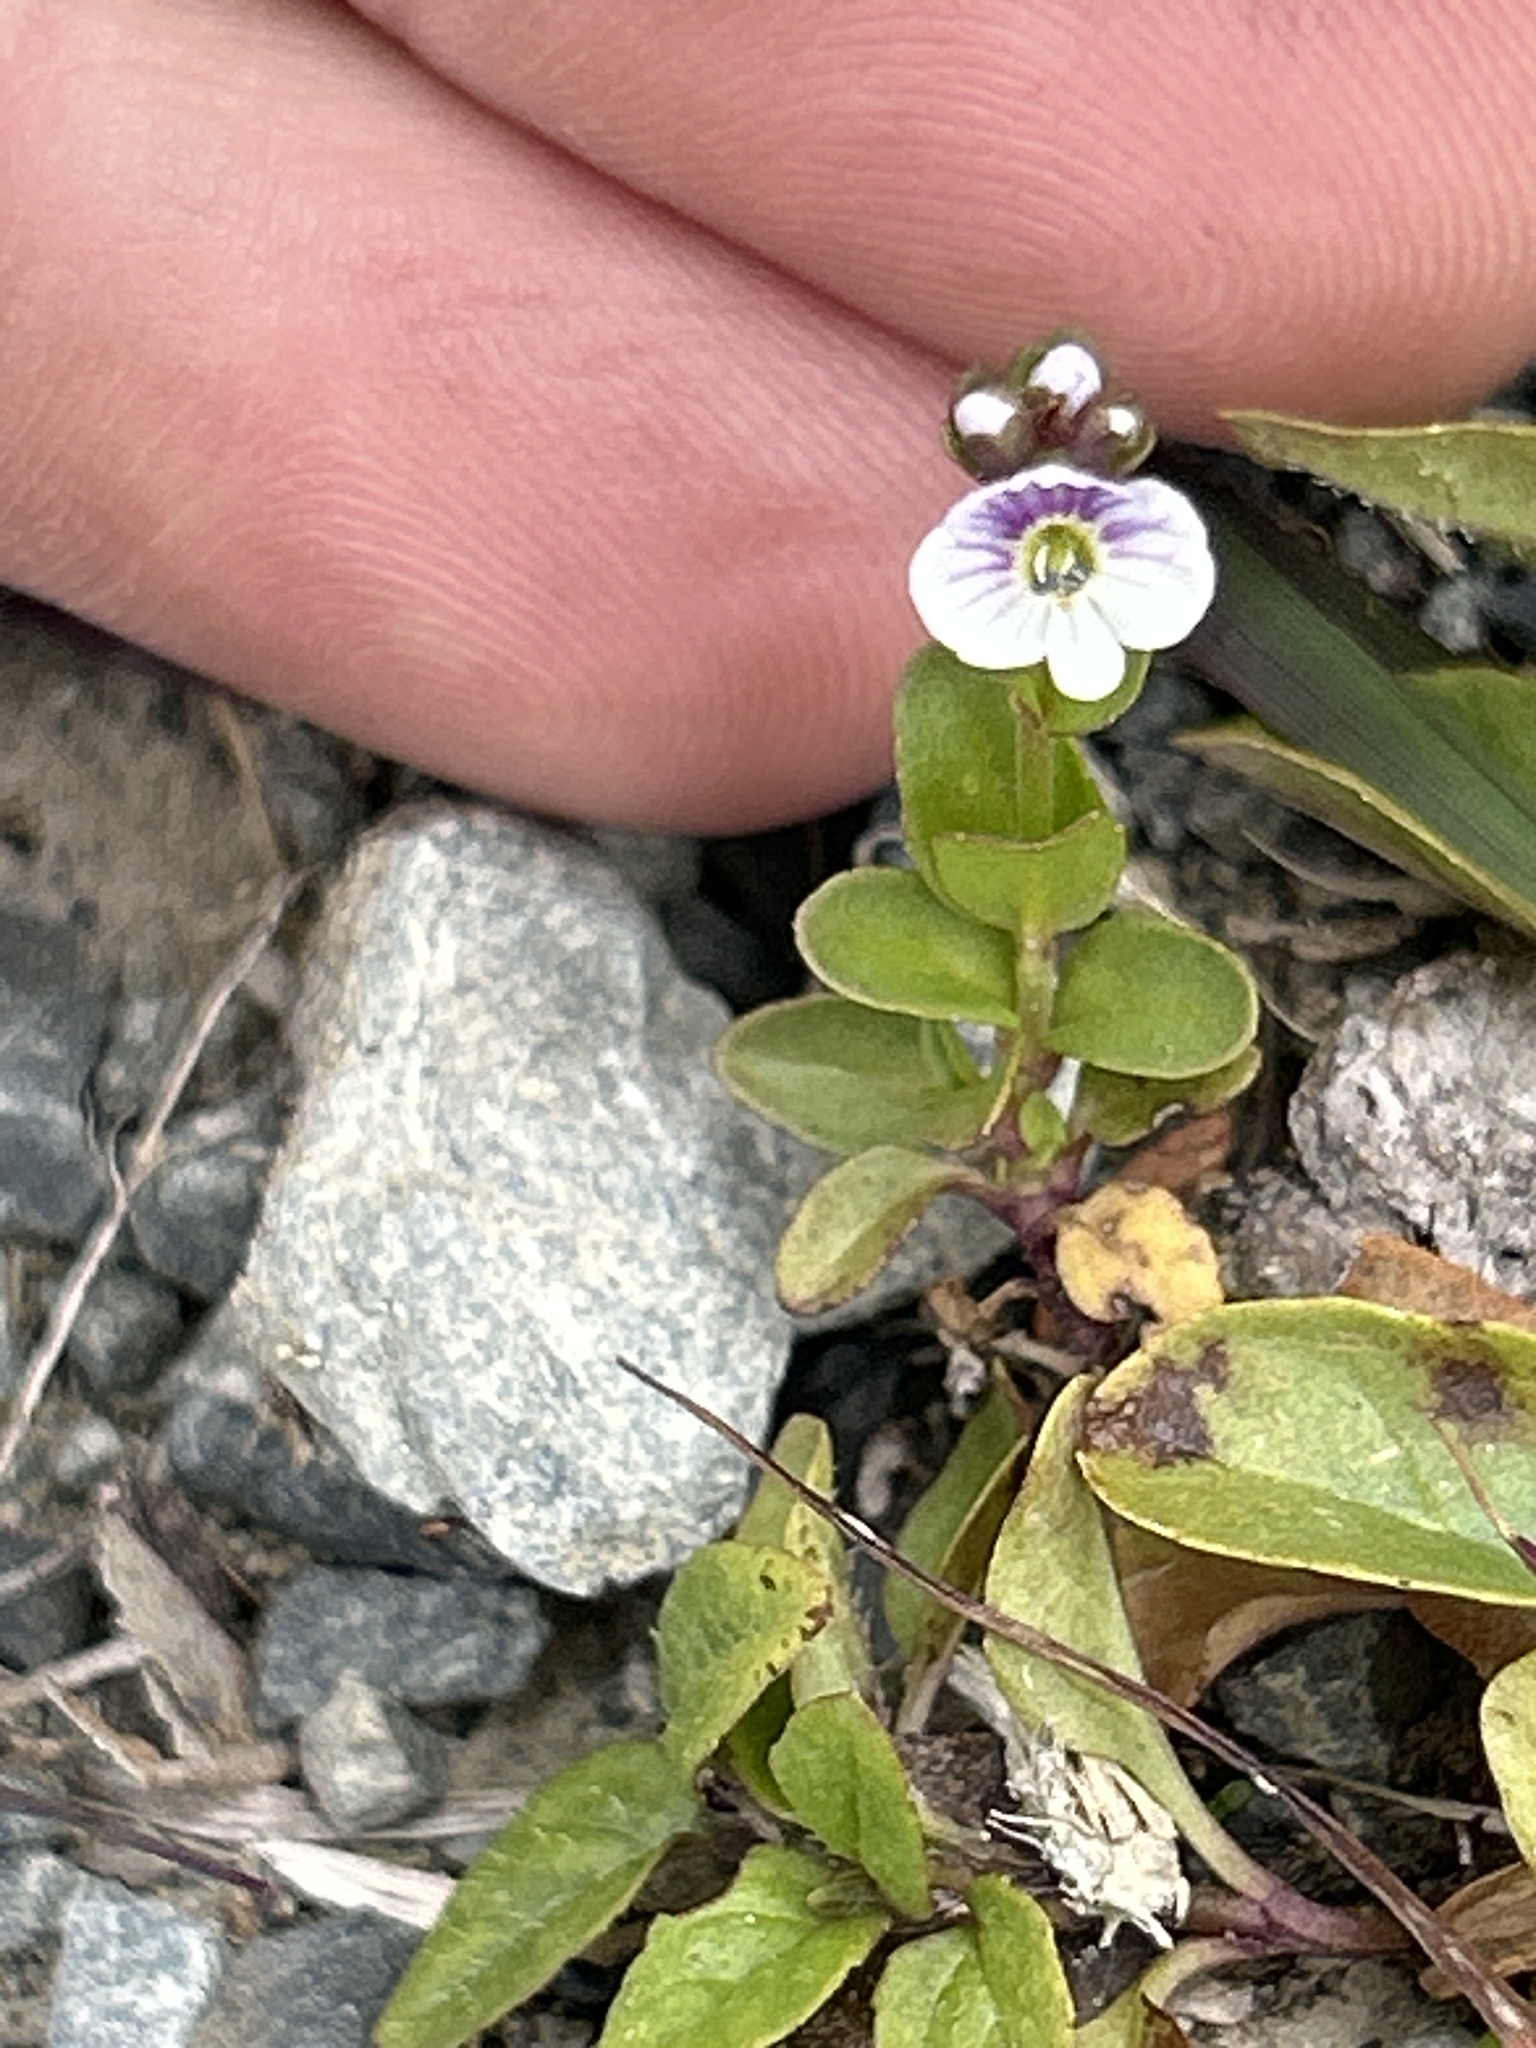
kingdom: Plantae
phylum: Tracheophyta
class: Magnoliopsida
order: Lamiales
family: Plantaginaceae
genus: Veronica
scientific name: Veronica serpyllifolia
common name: Thyme-leaved speedwell
